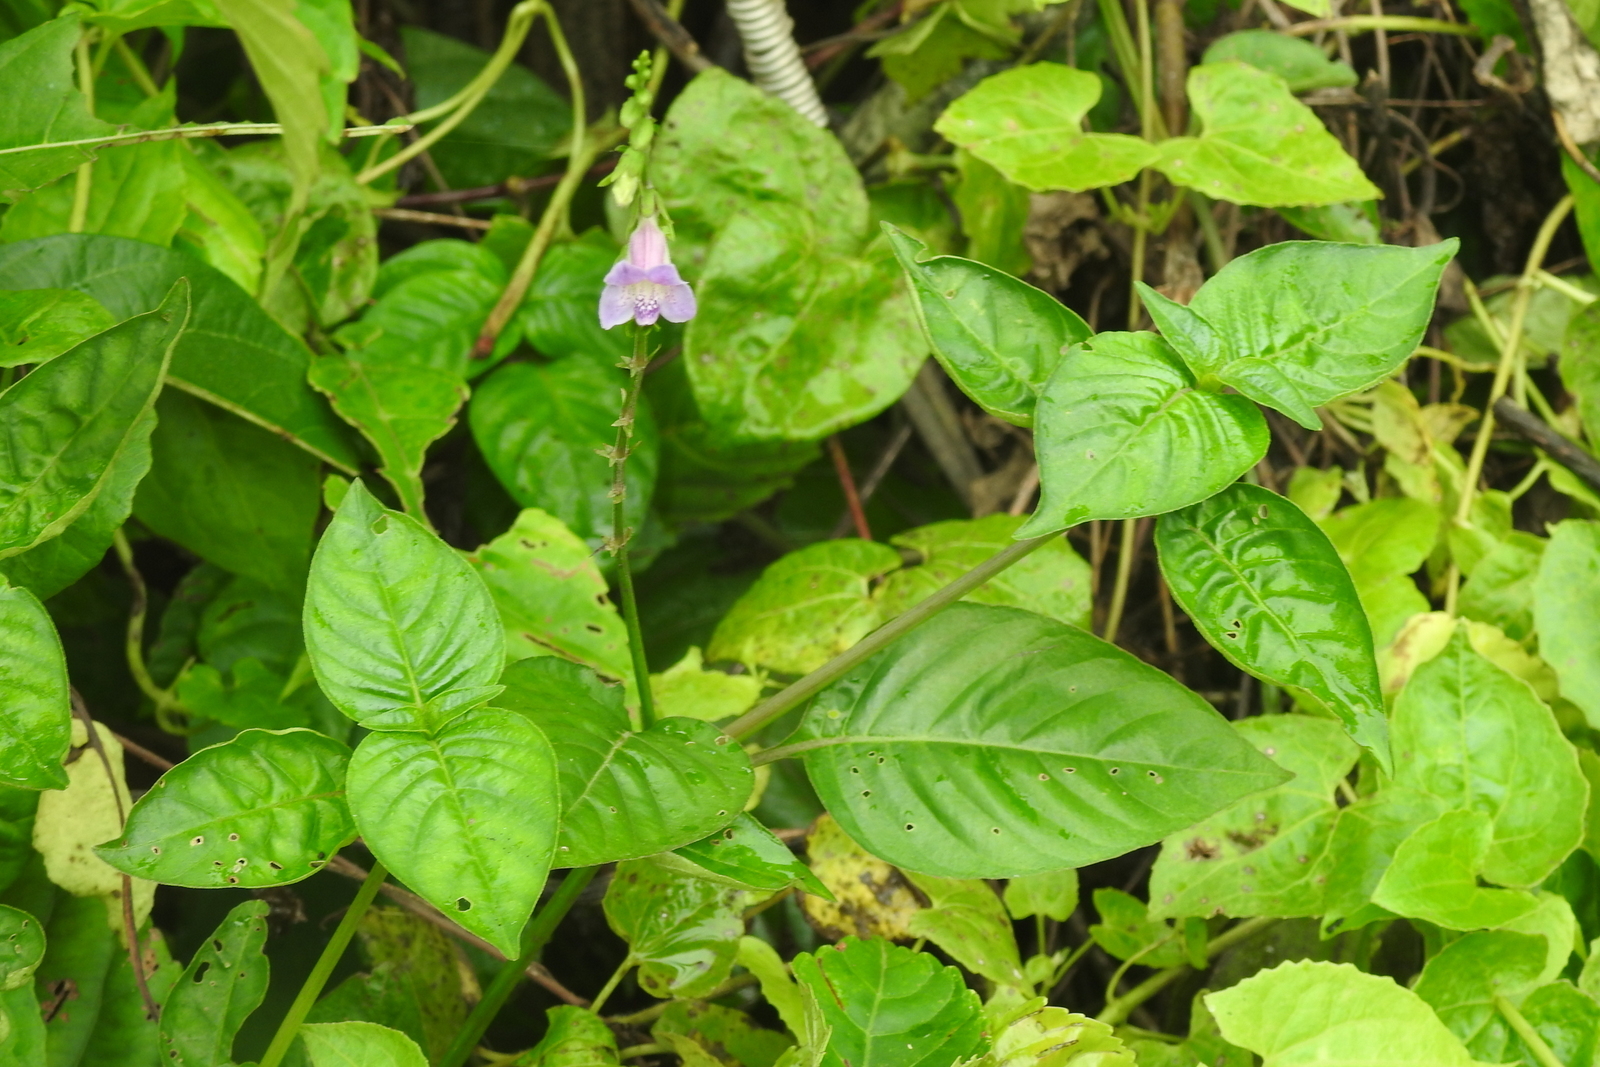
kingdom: Plantae
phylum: Tracheophyta
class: Magnoliopsida
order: Lamiales
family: Acanthaceae
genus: Asystasia
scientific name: Asystasia dalzelliana
